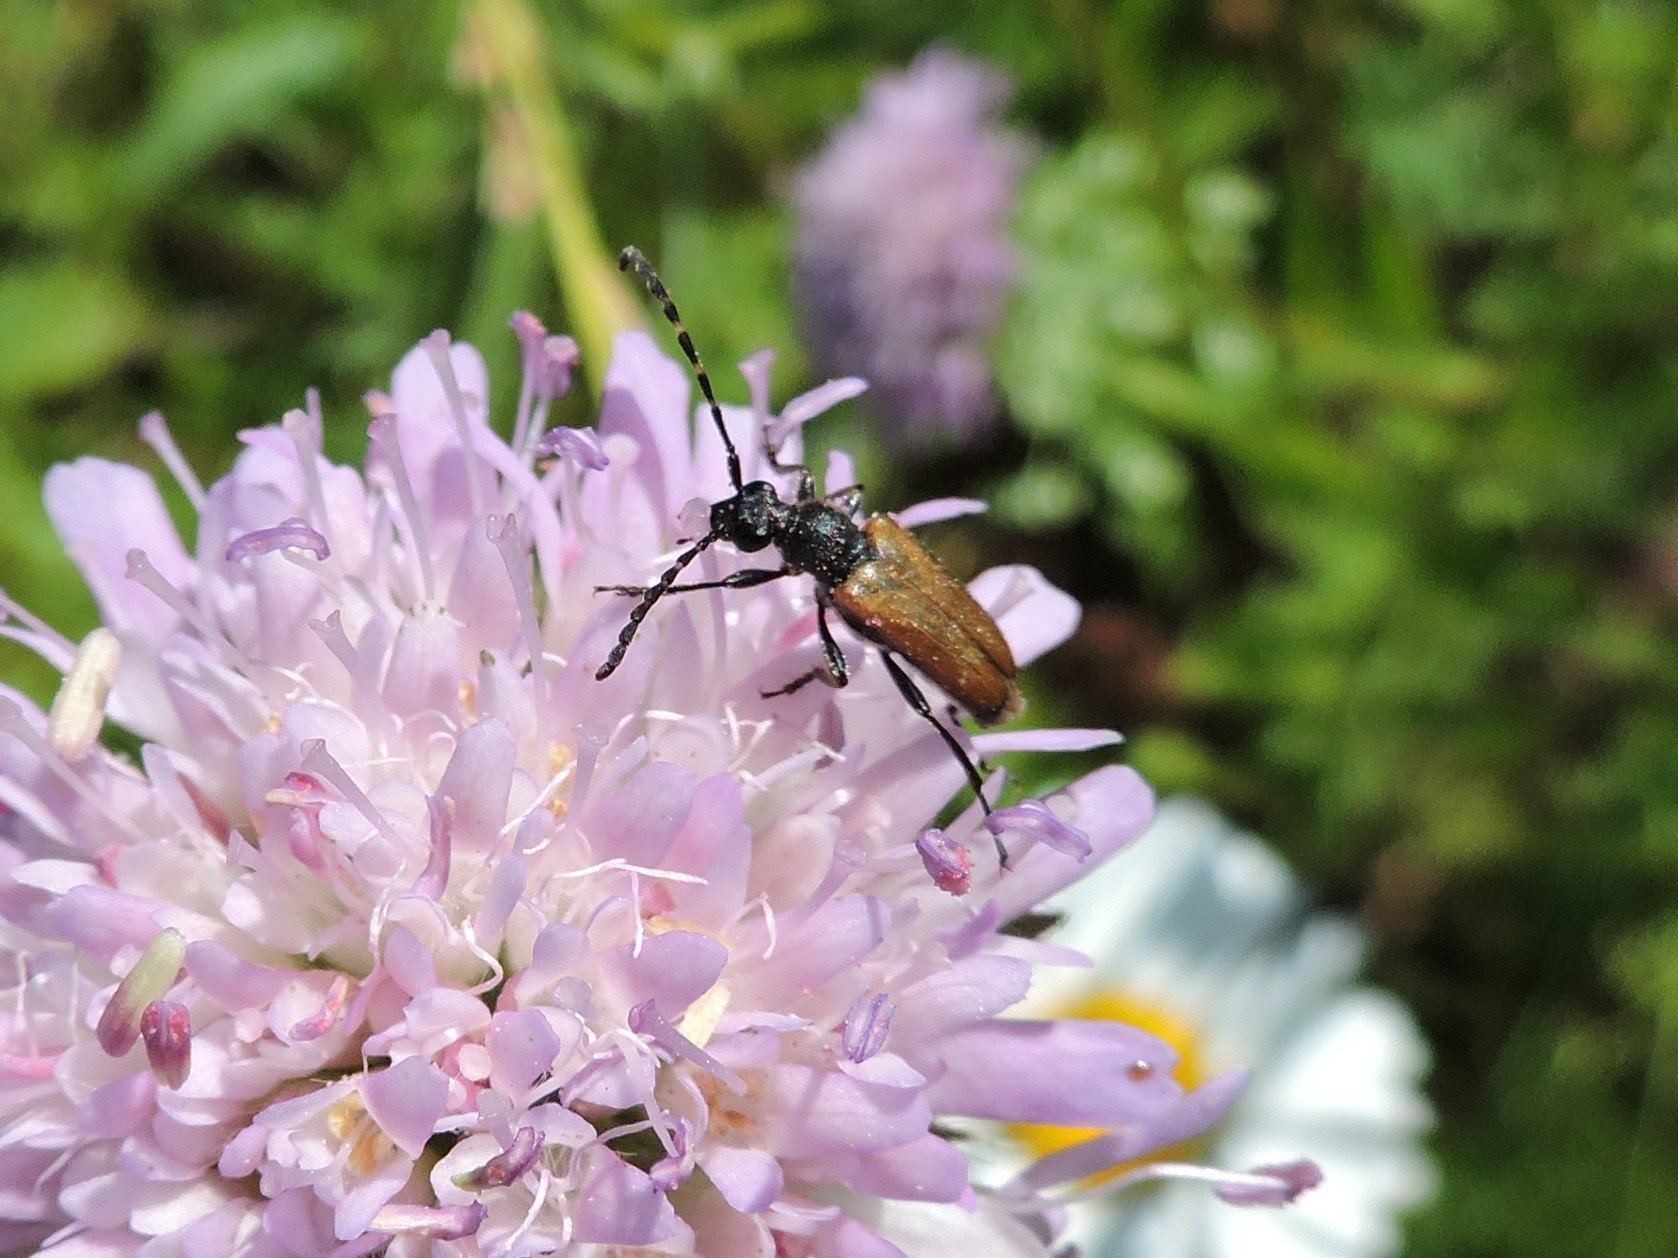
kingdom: Animalia
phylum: Arthropoda
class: Insecta
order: Coleoptera
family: Cerambycidae
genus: Paracorymbia
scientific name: Paracorymbia maculicornis
